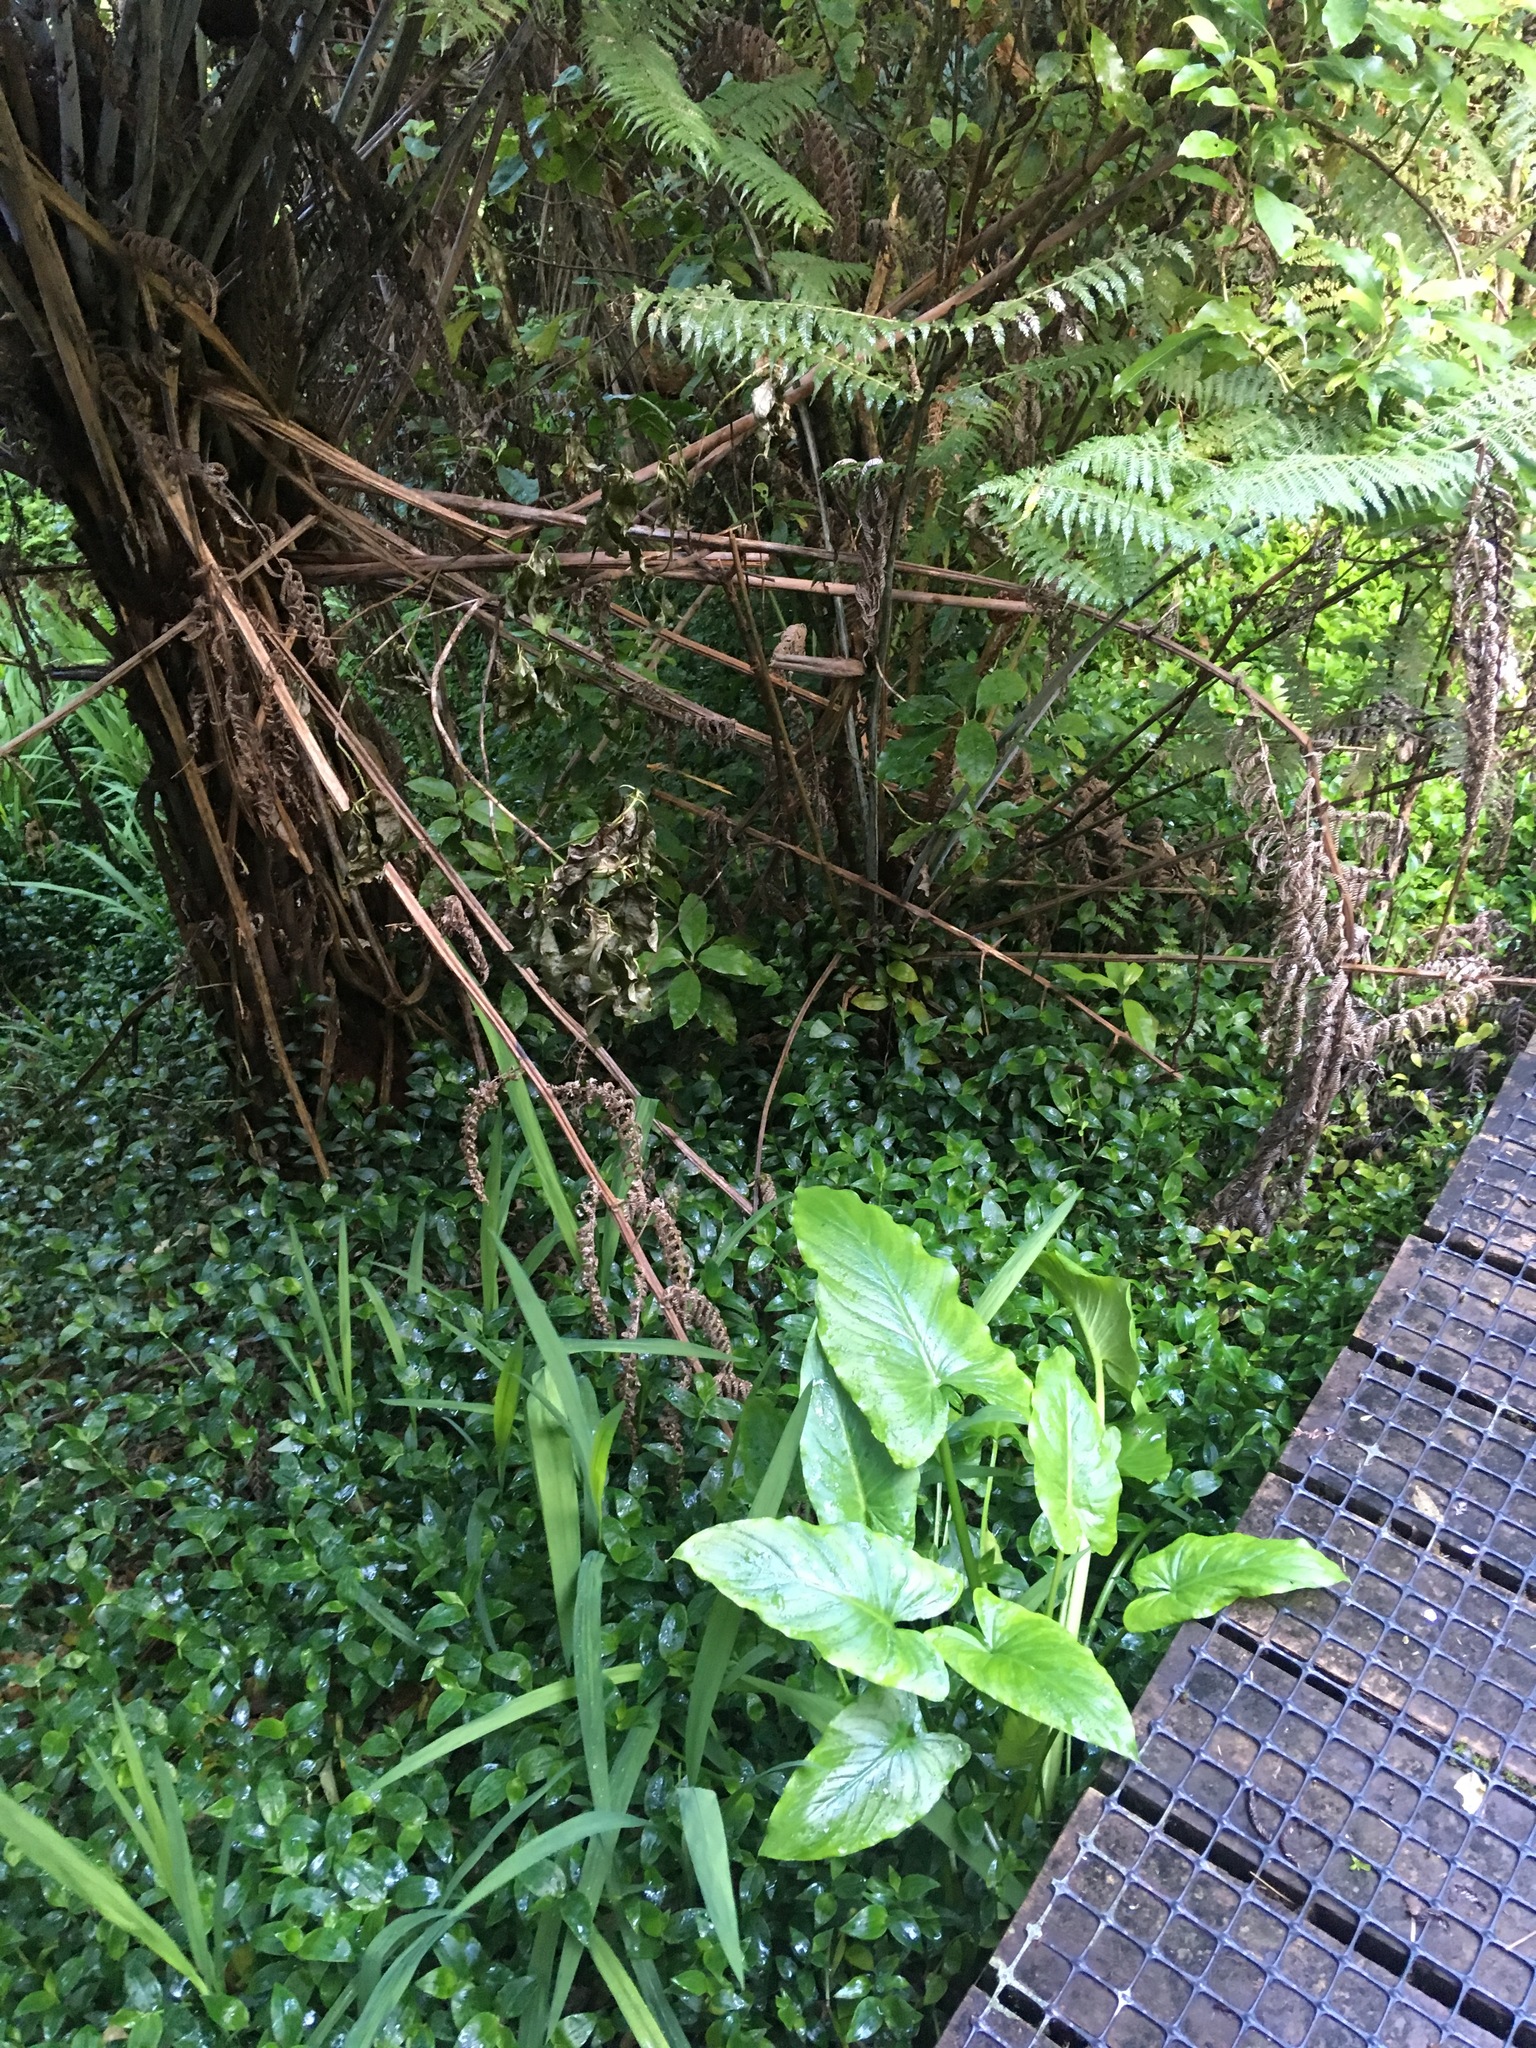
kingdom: Plantae
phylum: Tracheophyta
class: Liliopsida
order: Alismatales
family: Araceae
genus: Zantedeschia
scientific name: Zantedeschia aethiopica
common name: Altar-lily
